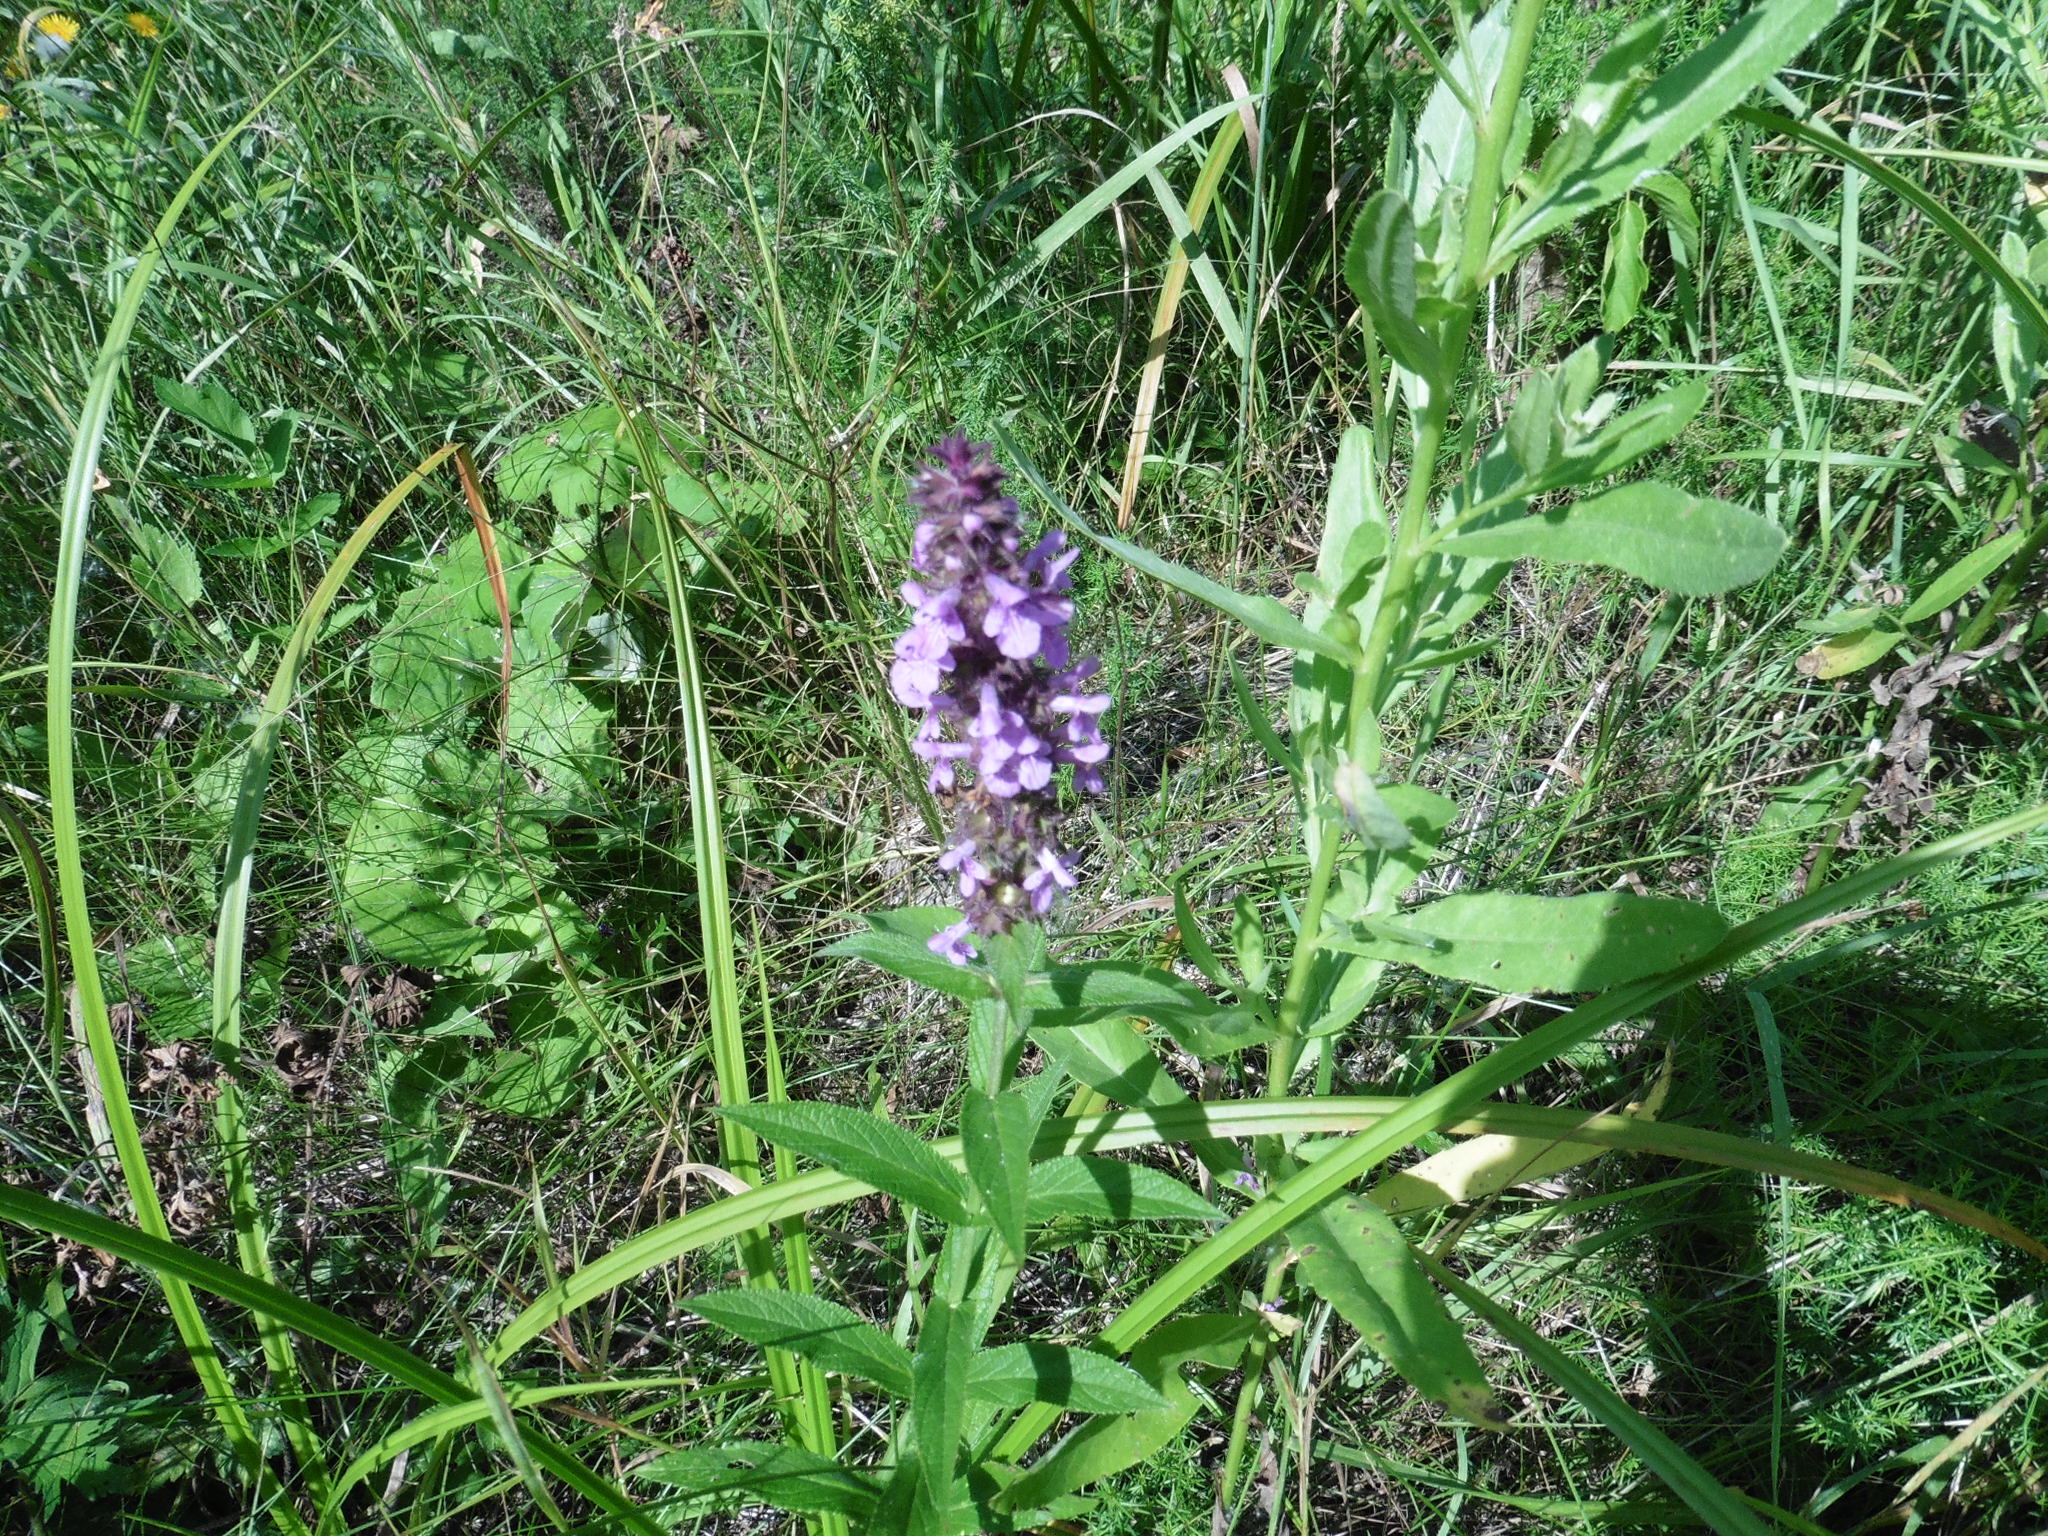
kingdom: Plantae
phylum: Tracheophyta
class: Magnoliopsida
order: Lamiales
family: Lamiaceae
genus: Stachys
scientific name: Stachys palustris
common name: Marsh woundwort
